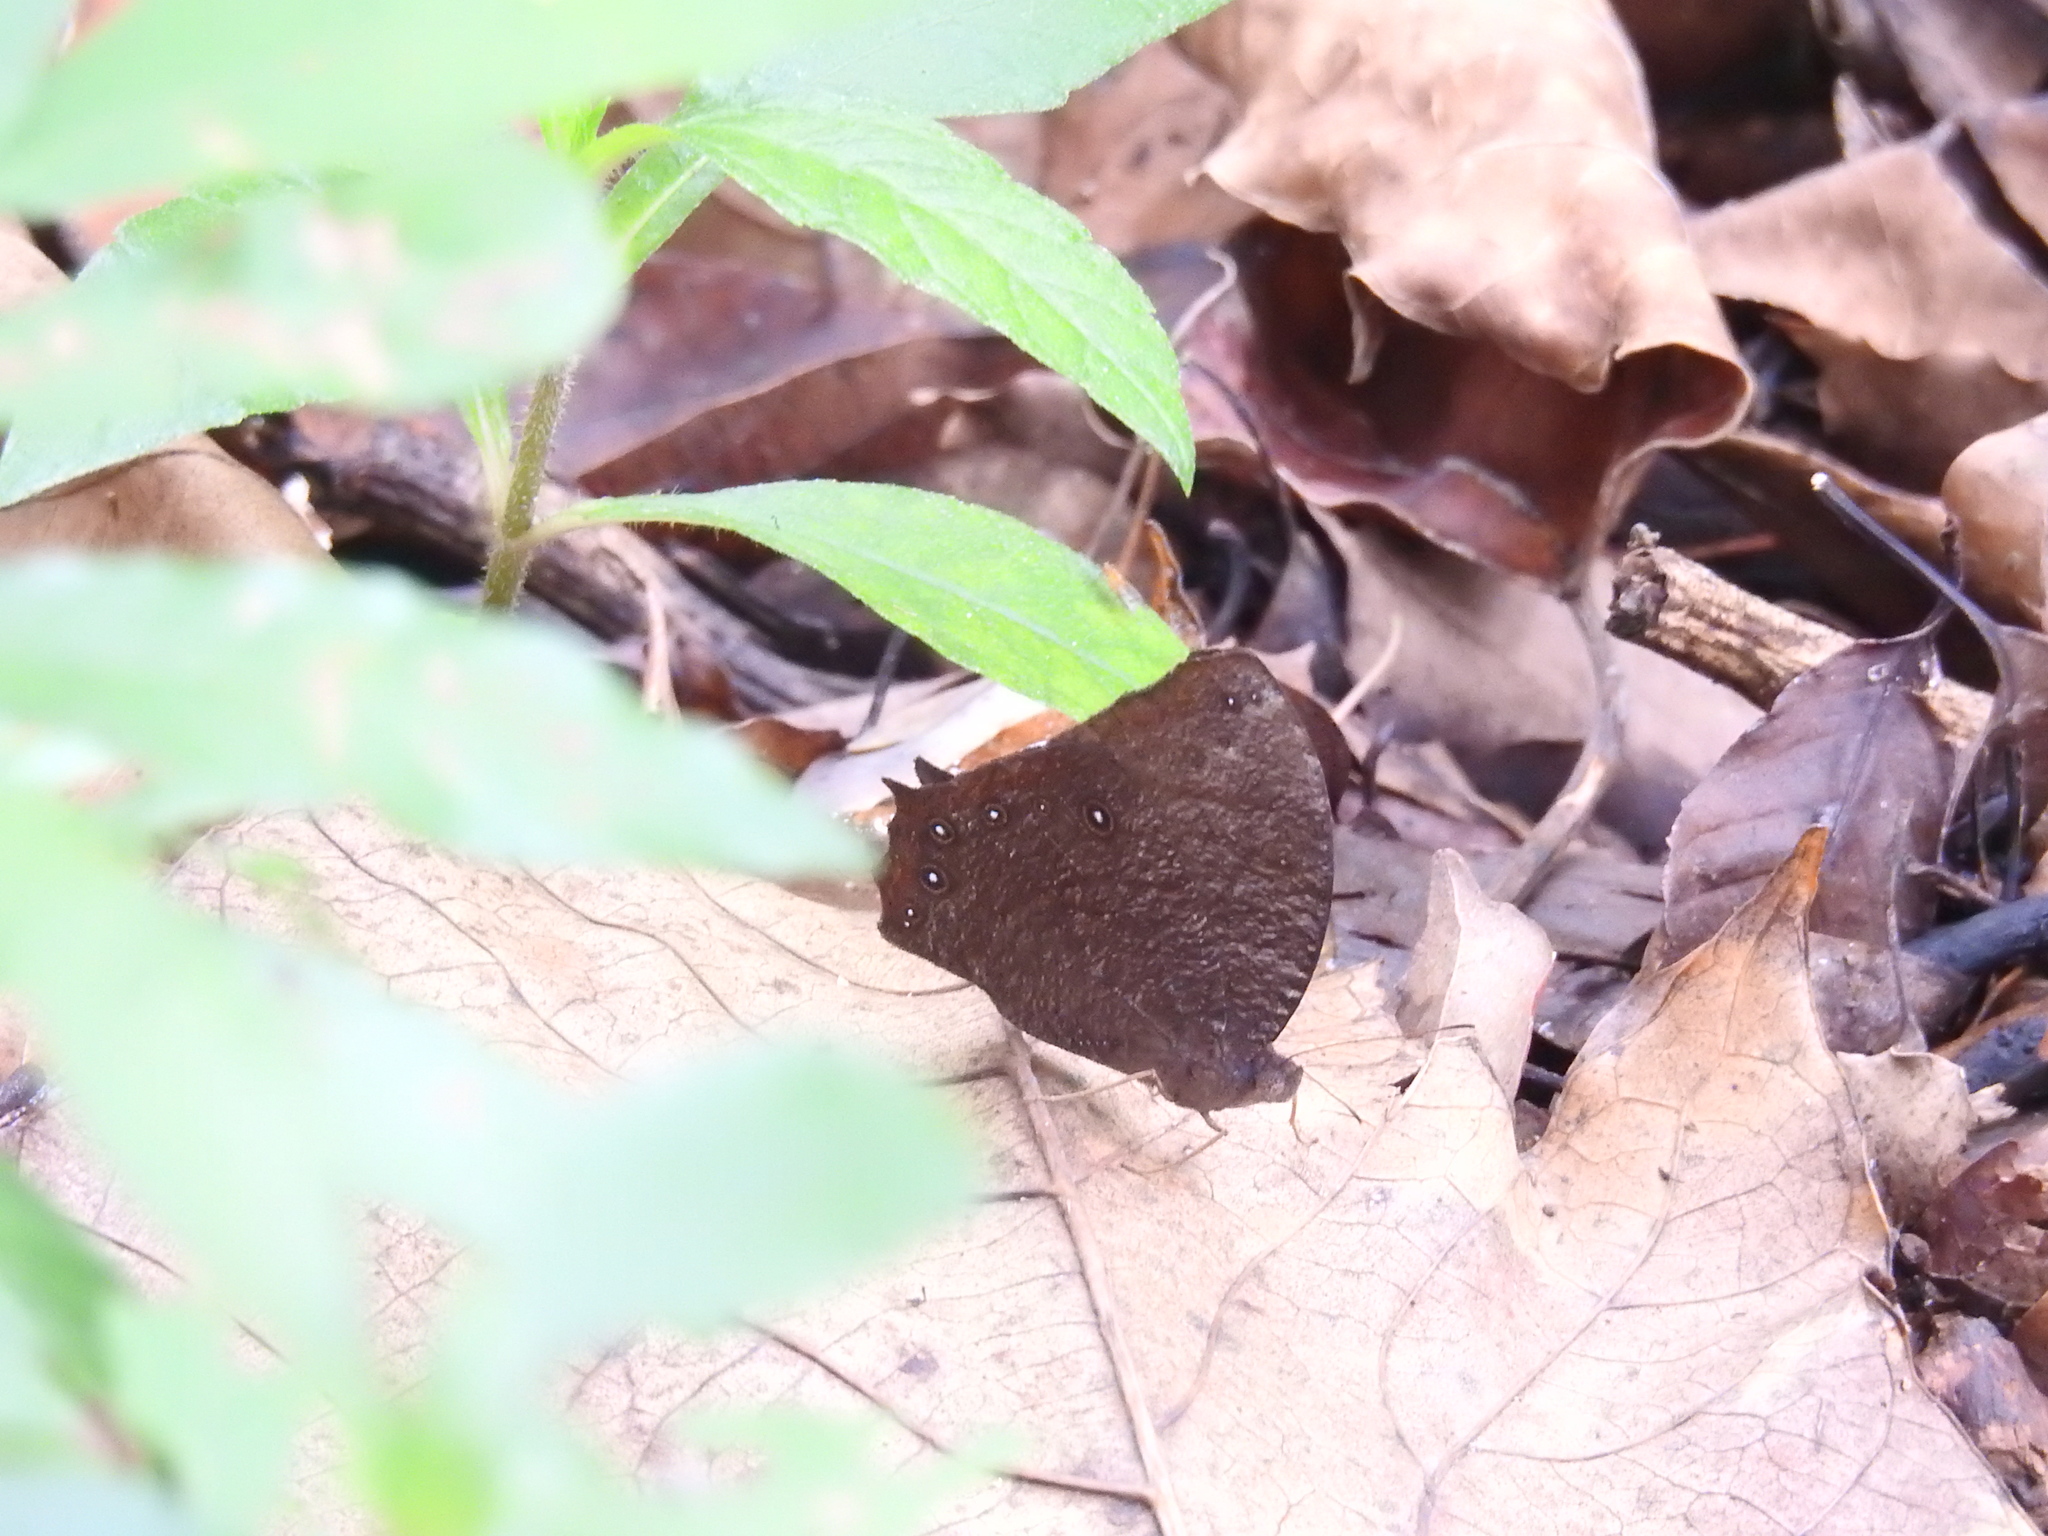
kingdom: Animalia
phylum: Arthropoda
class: Insecta
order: Lepidoptera
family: Nymphalidae
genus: Melanitis
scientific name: Melanitis phedima
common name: Dark evening brown
